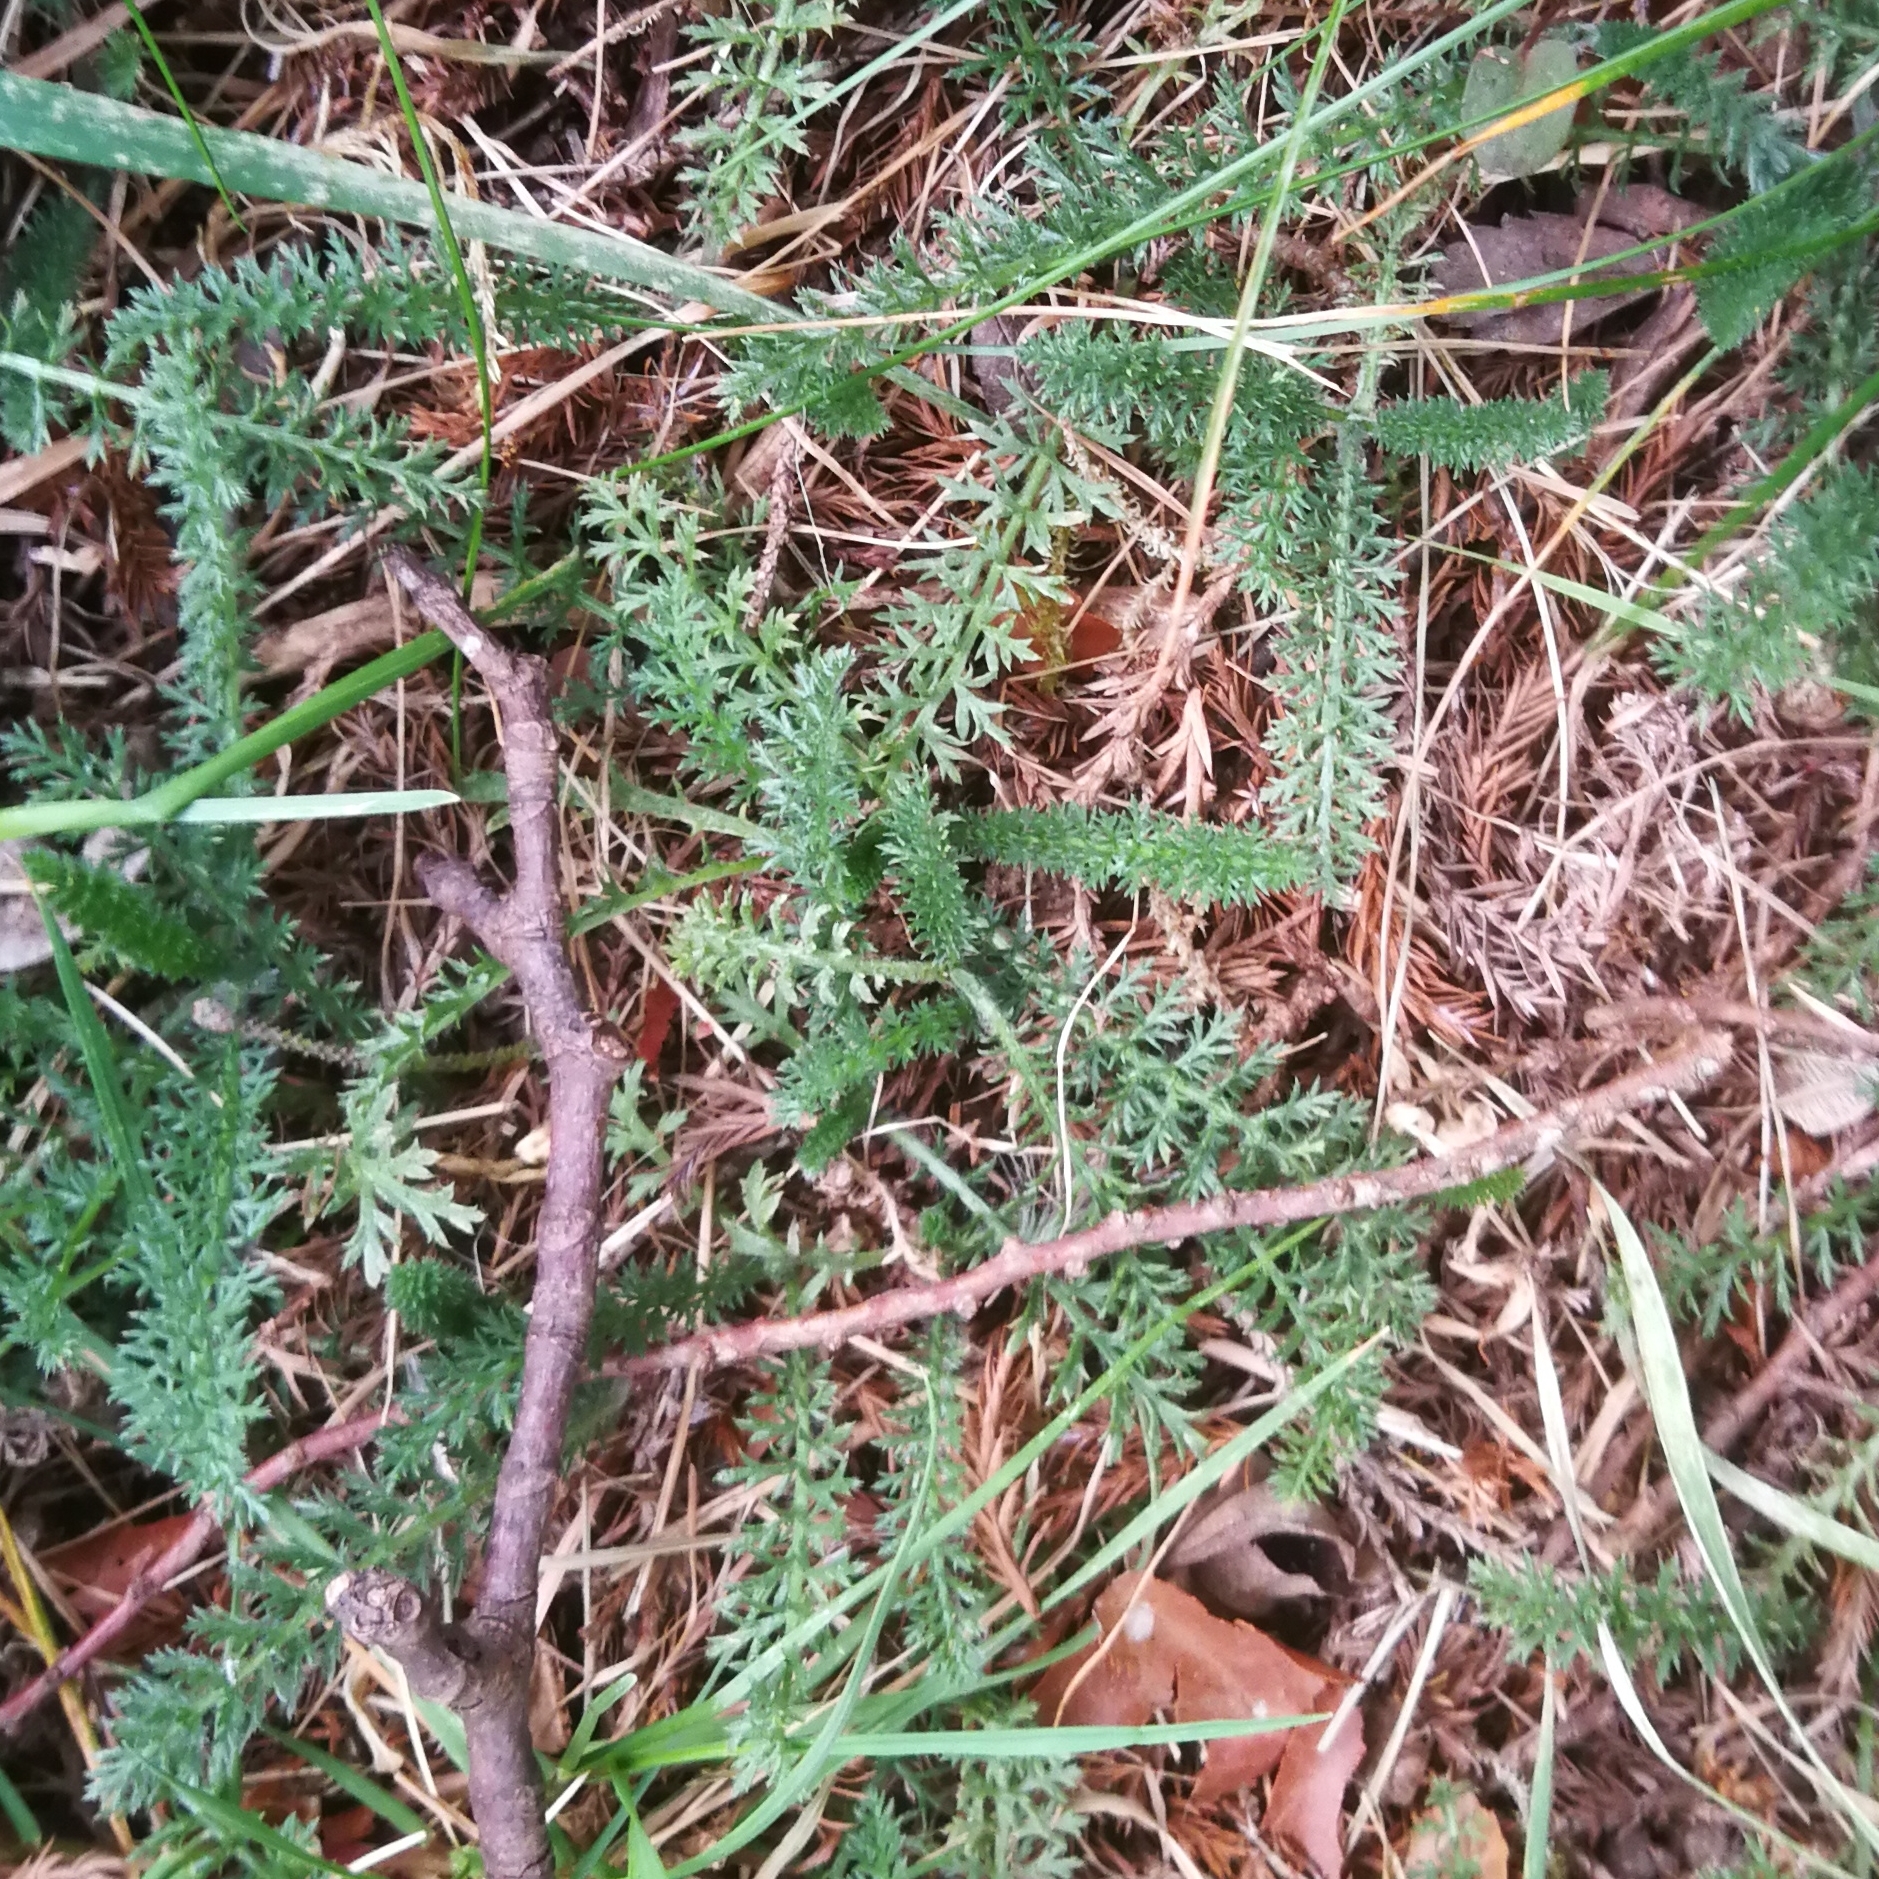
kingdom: Plantae
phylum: Tracheophyta
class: Magnoliopsida
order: Asterales
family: Asteraceae
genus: Achillea
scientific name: Achillea millefolium
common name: Yarrow
